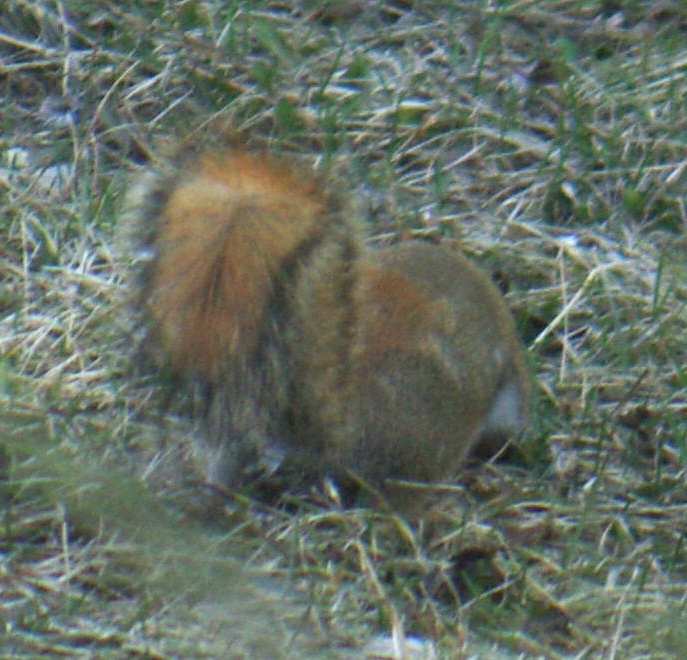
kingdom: Animalia
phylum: Chordata
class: Mammalia
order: Rodentia
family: Sciuridae
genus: Tamiasciurus
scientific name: Tamiasciurus hudsonicus
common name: Red squirrel
